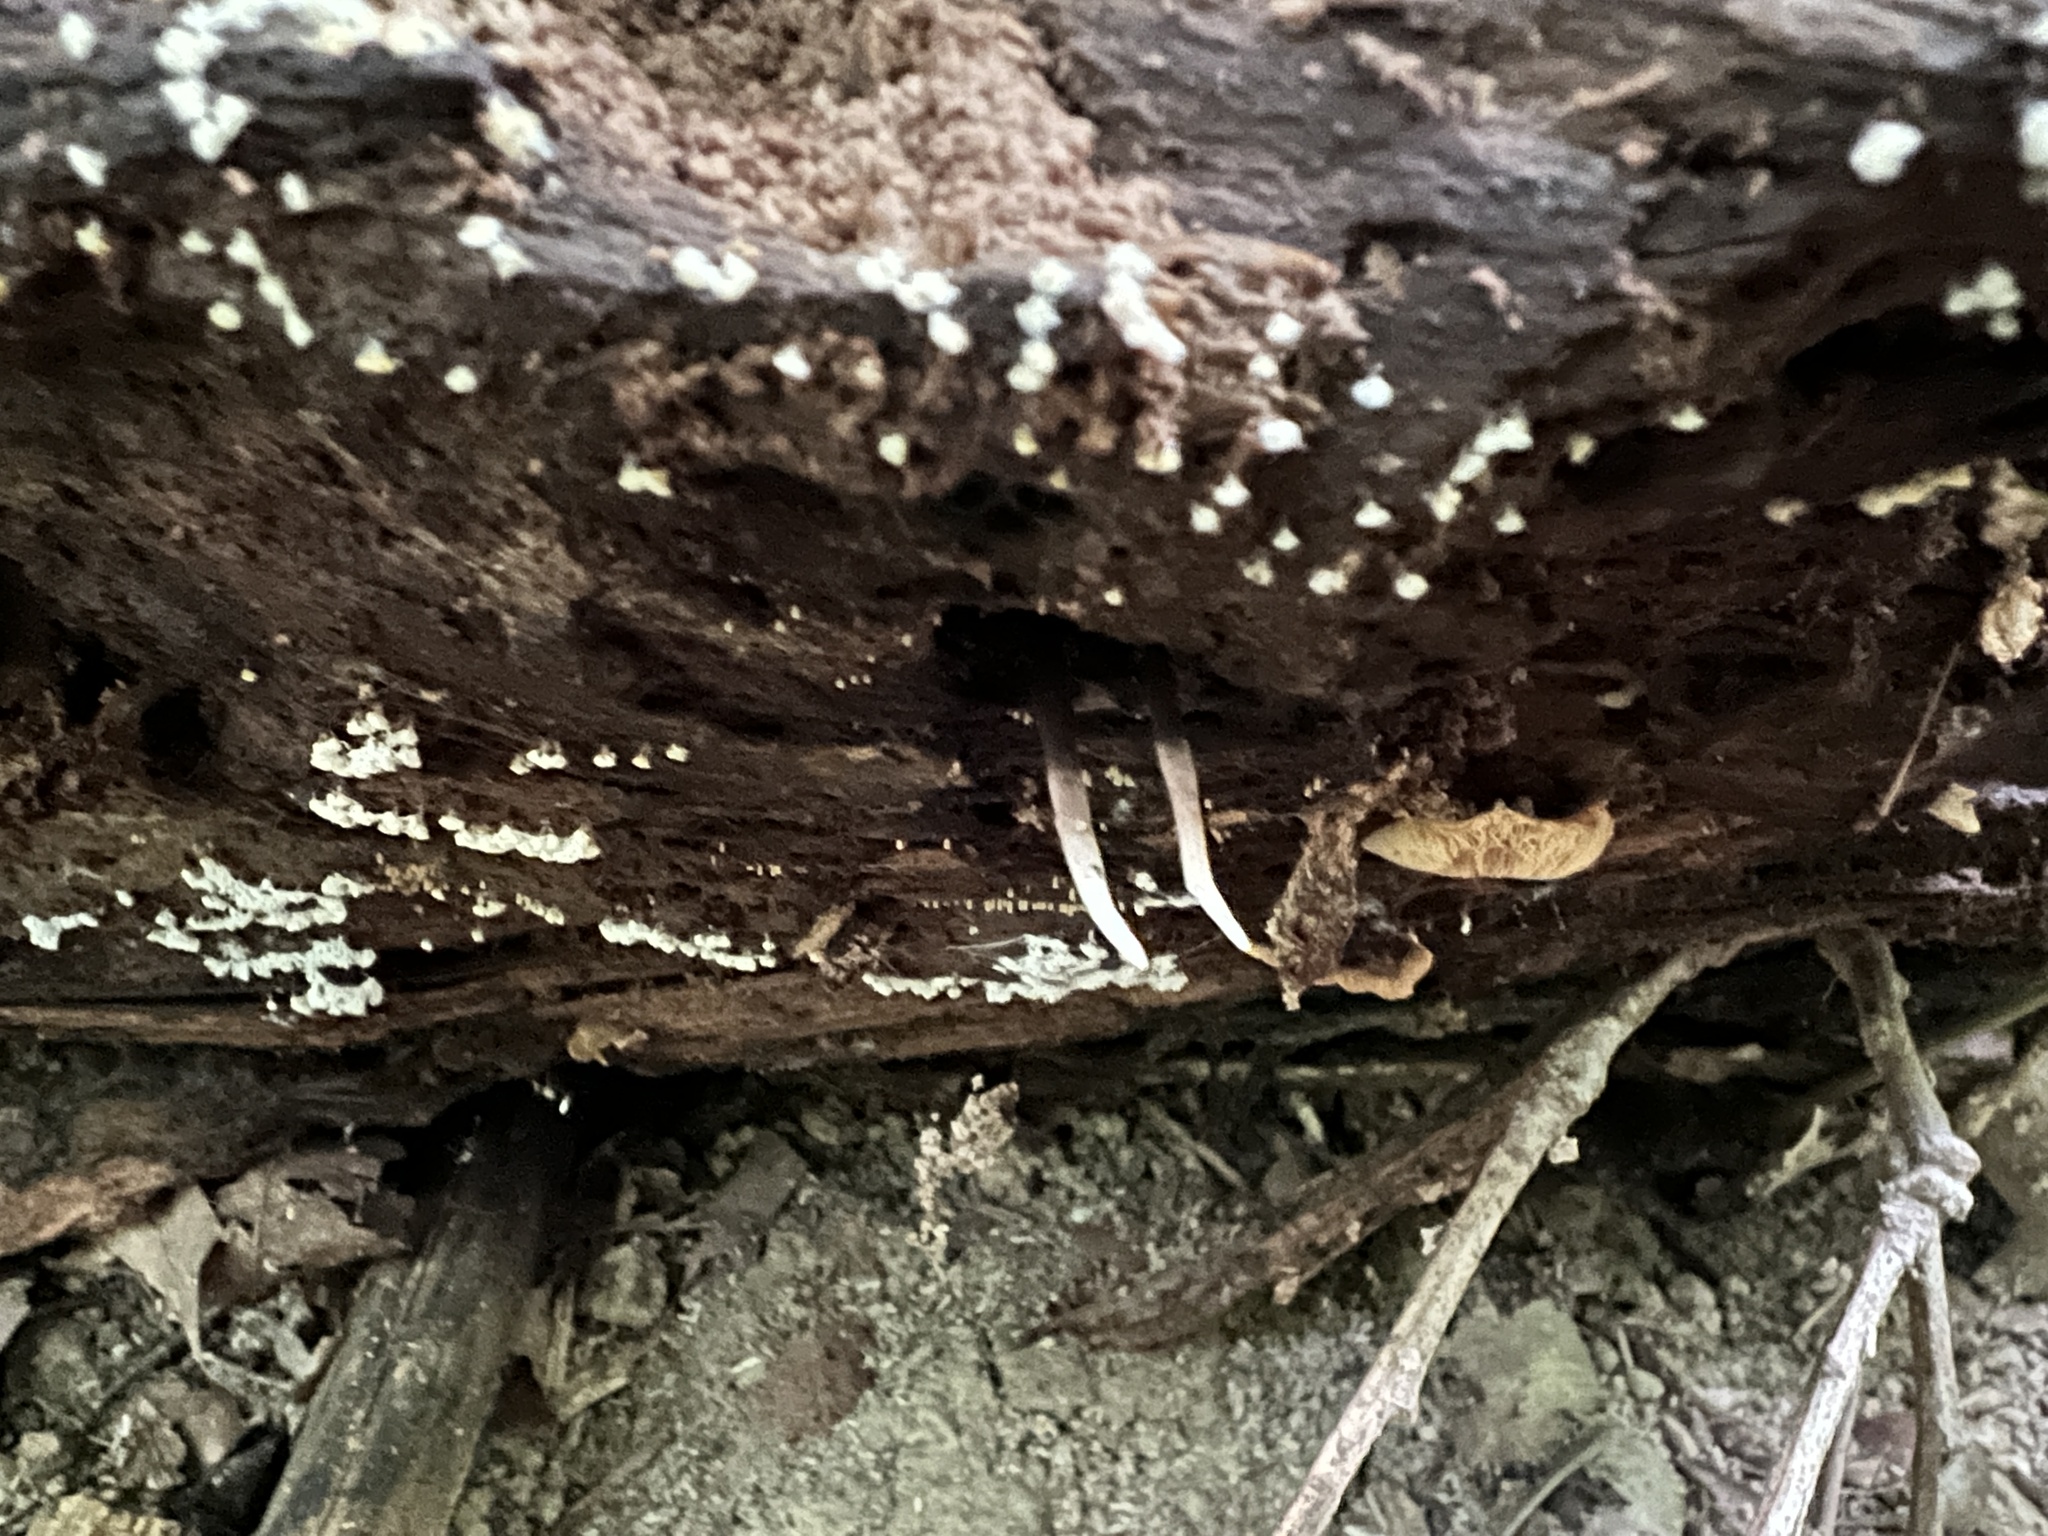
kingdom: Fungi
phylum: Ascomycota
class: Sordariomycetes
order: Hypocreales
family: Ophiocordycipitaceae
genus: Ophiocordyceps
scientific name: Ophiocordyceps smithii
